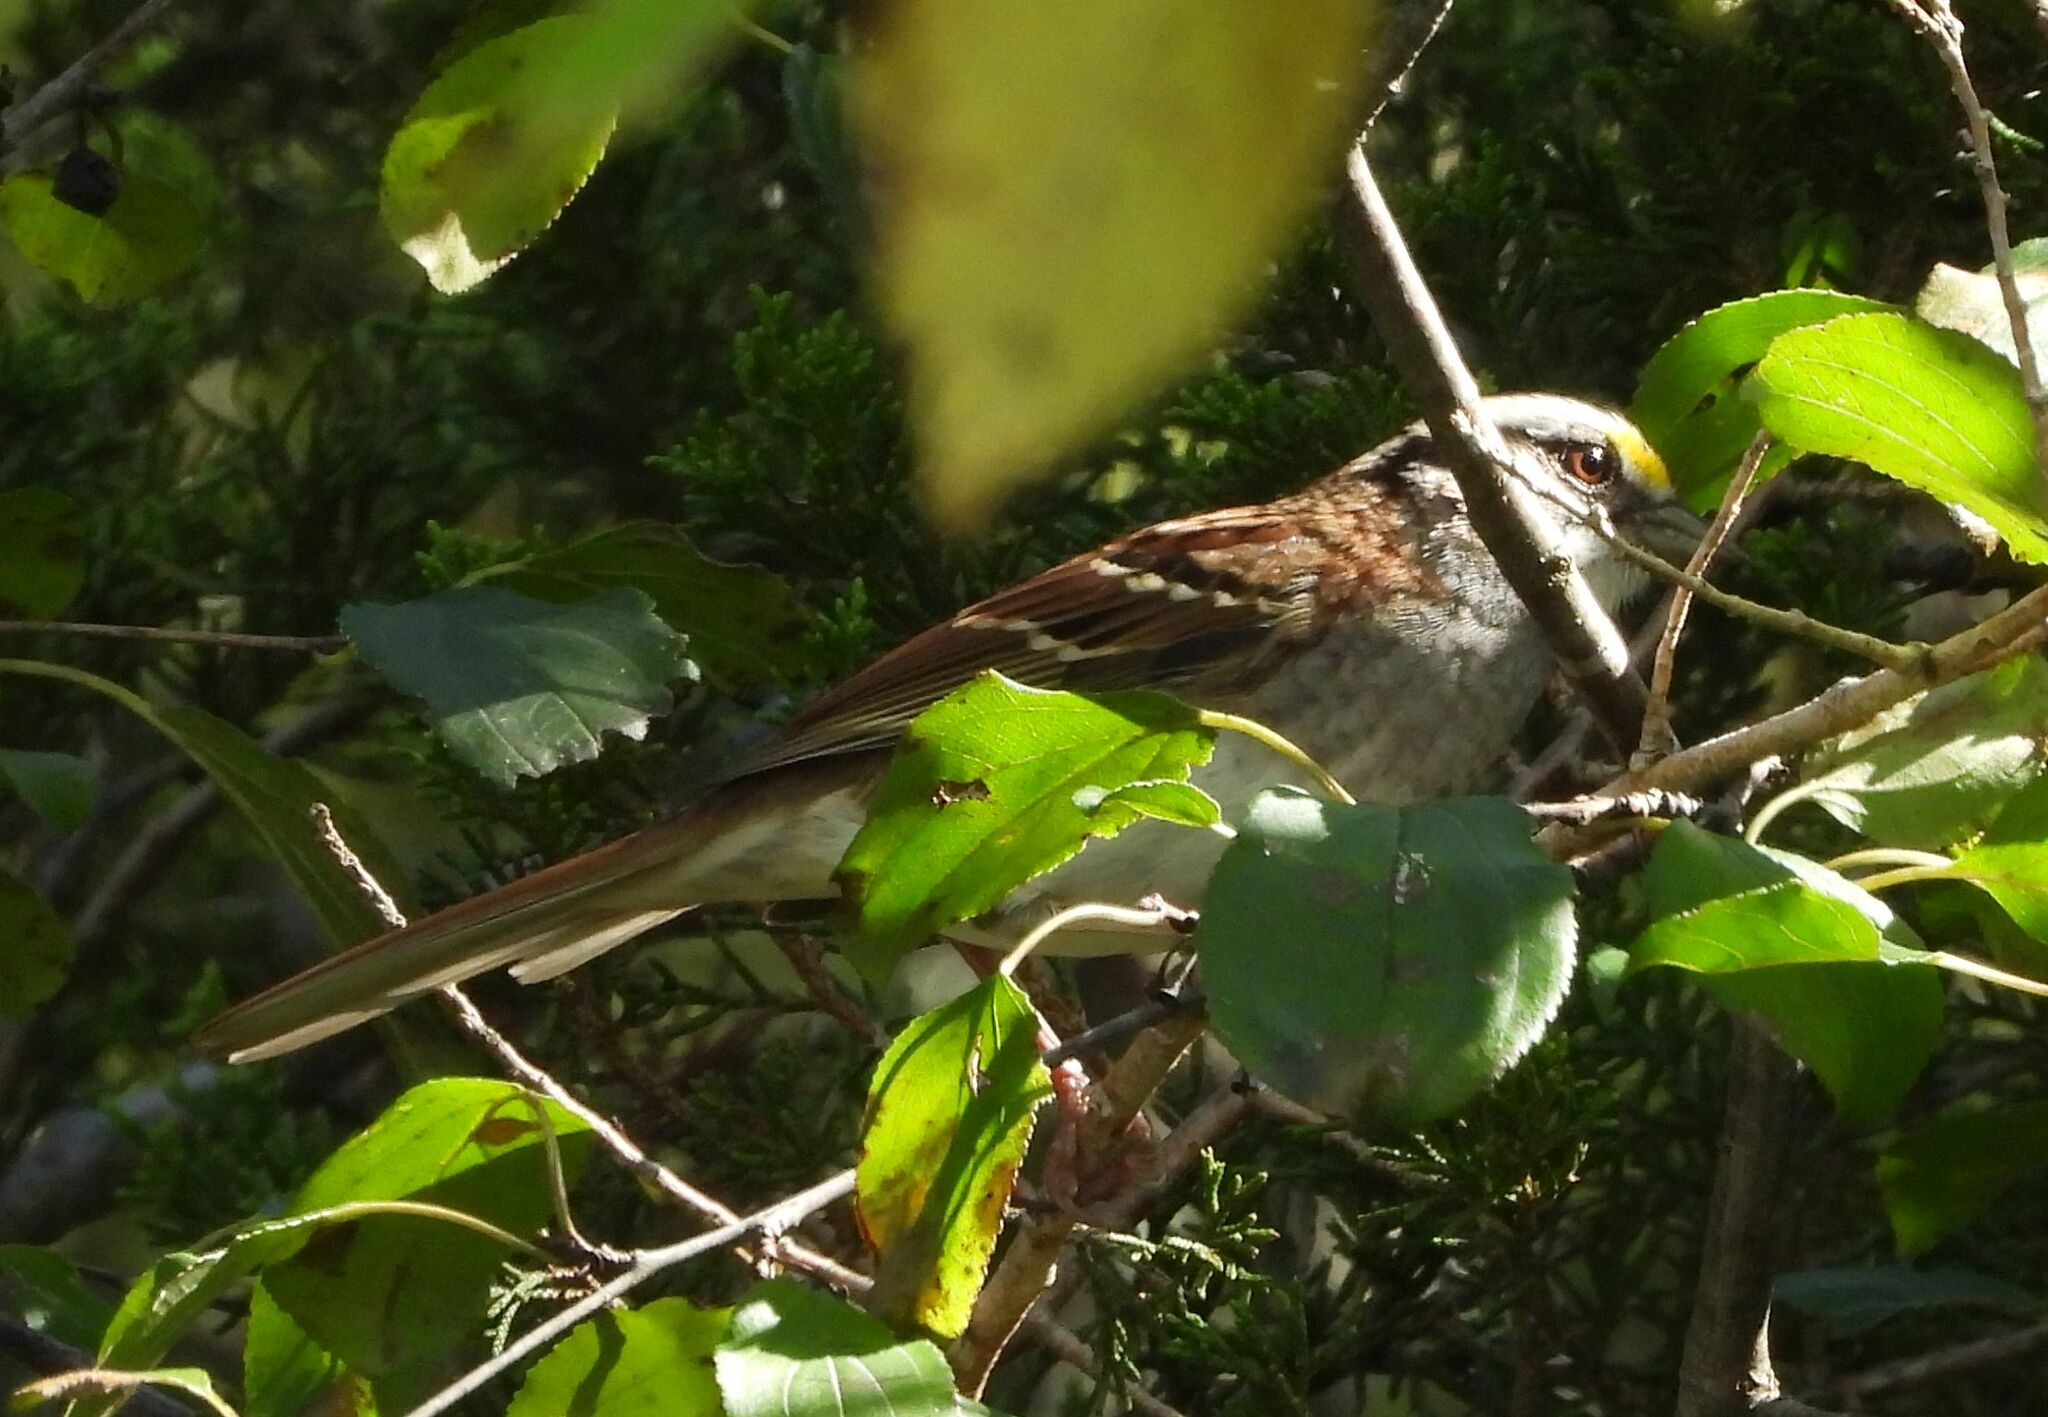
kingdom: Animalia
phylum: Chordata
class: Aves
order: Passeriformes
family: Passerellidae
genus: Zonotrichia
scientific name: Zonotrichia albicollis
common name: White-throated sparrow
